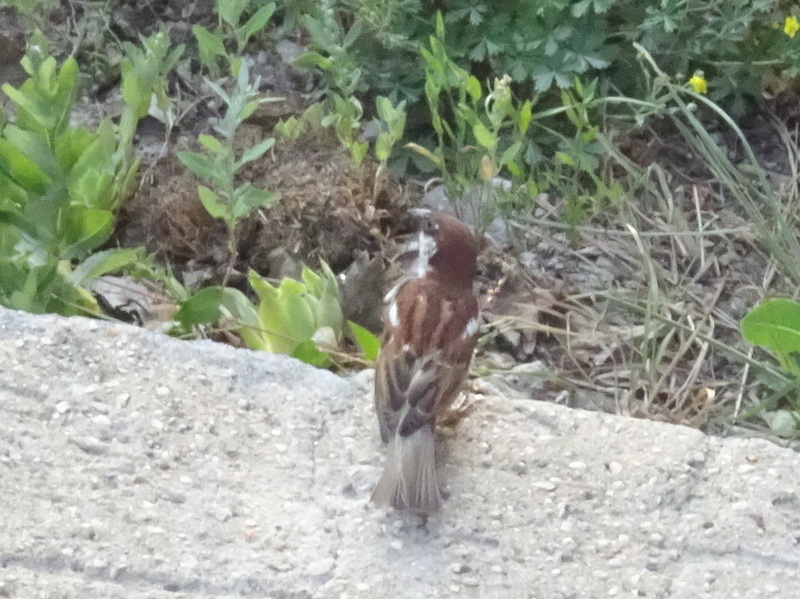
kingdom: Animalia
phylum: Chordata
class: Aves
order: Passeriformes
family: Passeridae
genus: Passer
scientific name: Passer italiae
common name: Italian sparrow
